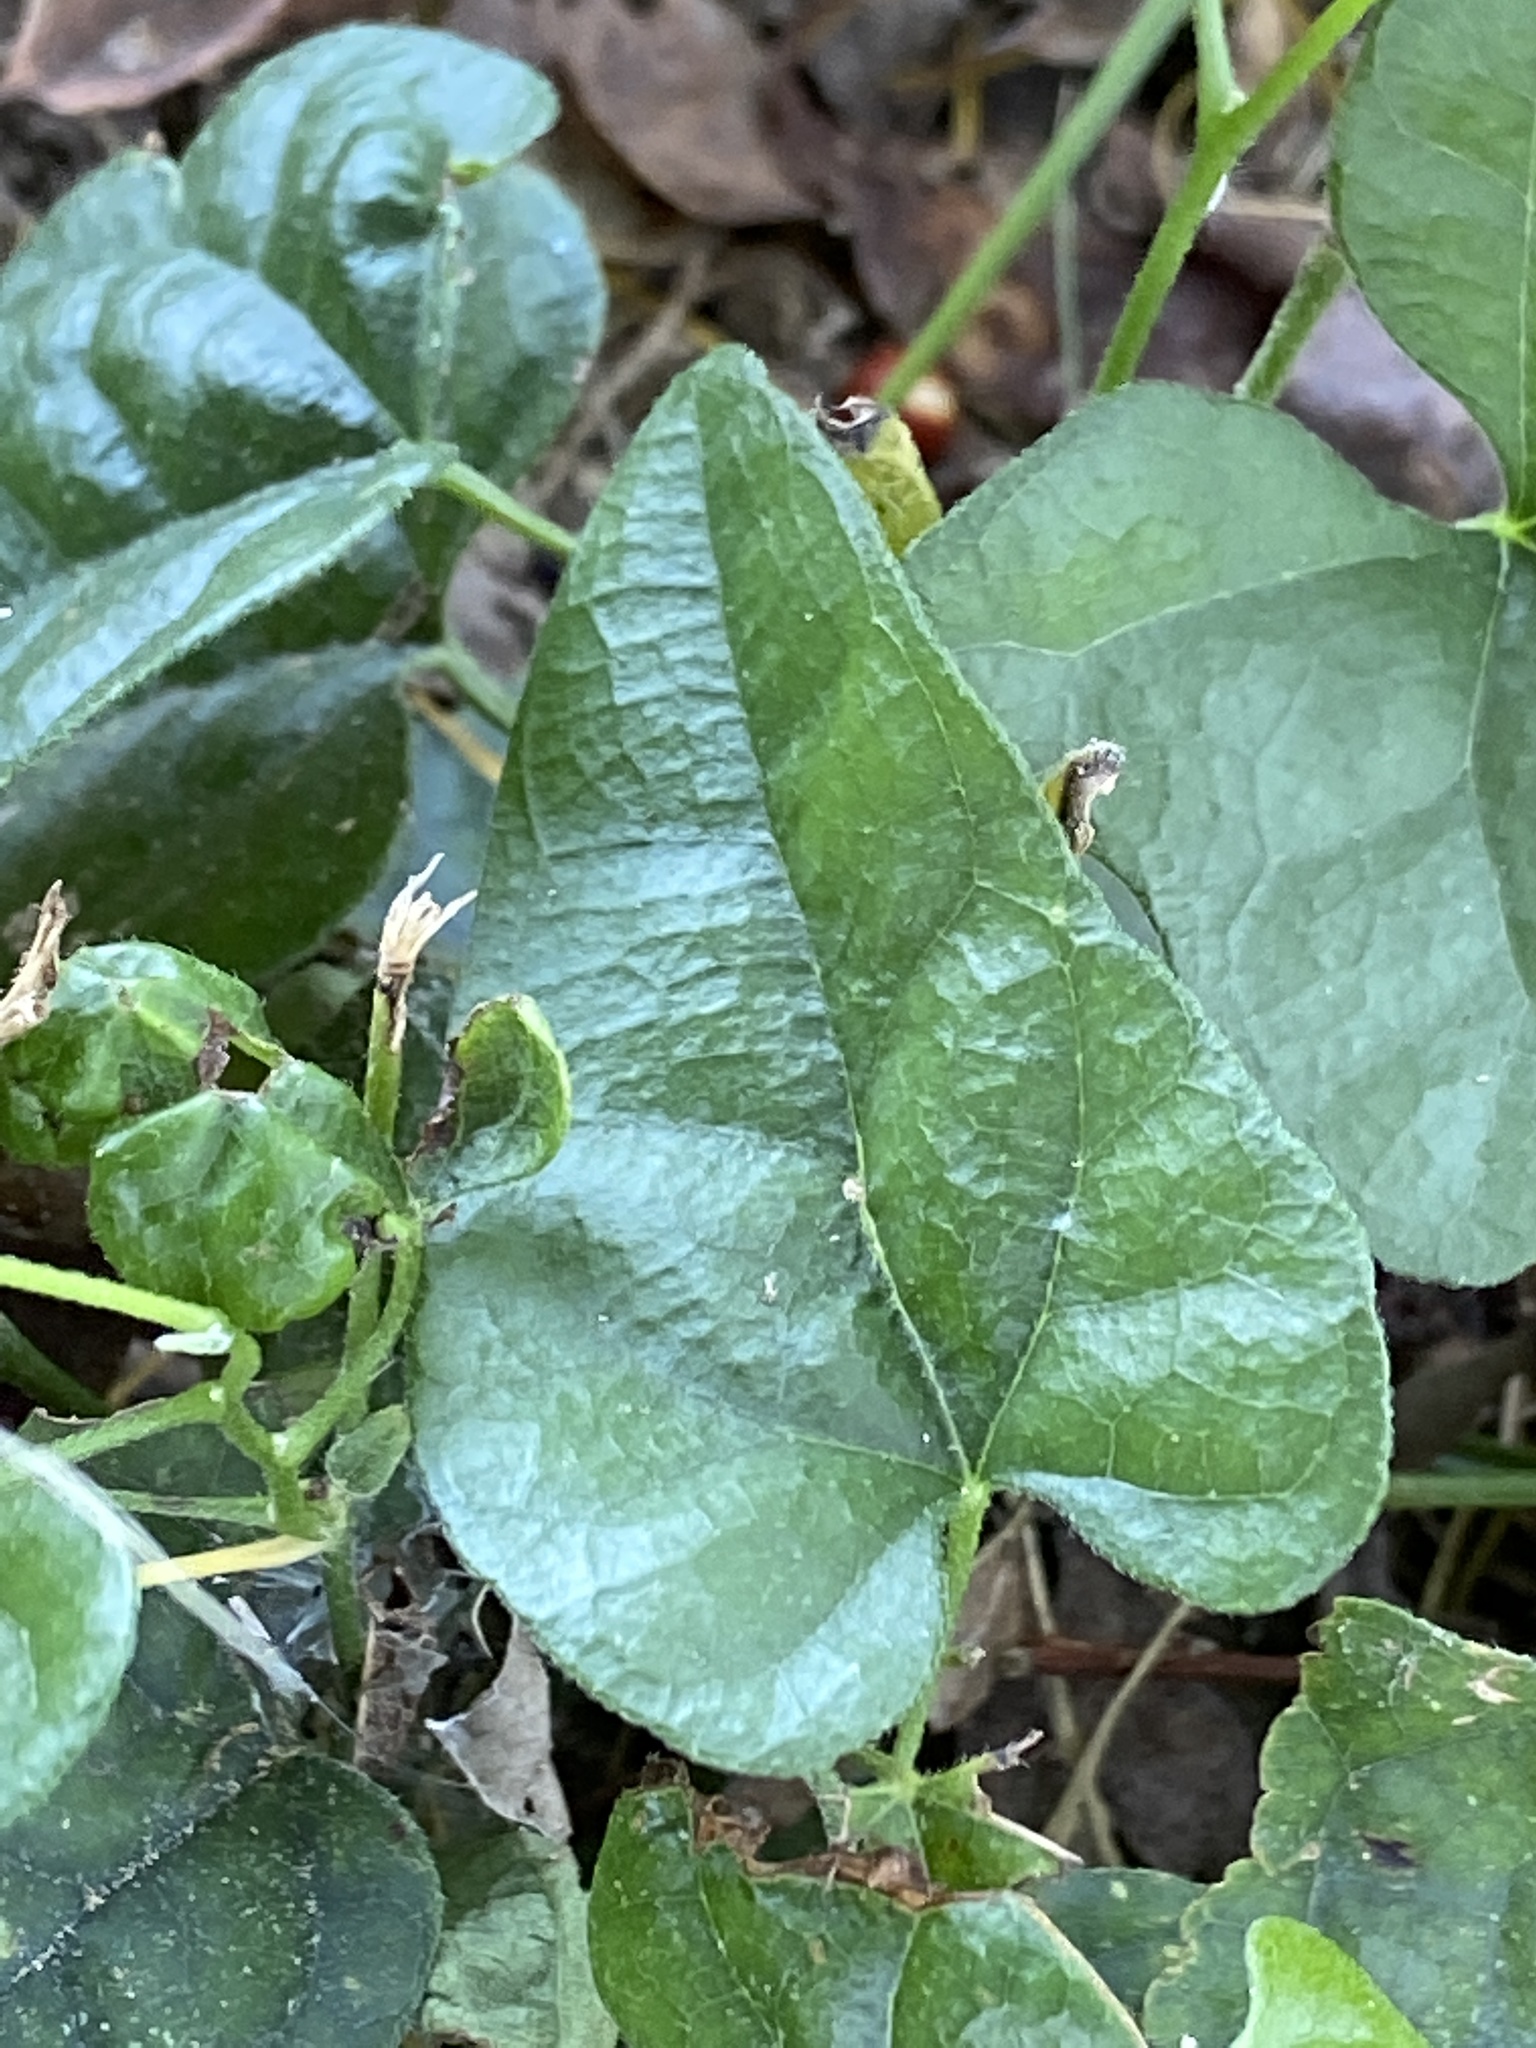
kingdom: Plantae
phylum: Tracheophyta
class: Magnoliopsida
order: Ranunculales
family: Menispermaceae
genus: Cocculus
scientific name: Cocculus carolinus
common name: Carolina moonseed
